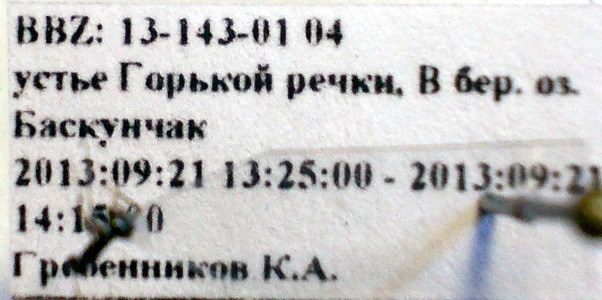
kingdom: Animalia
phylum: Arthropoda
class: Insecta
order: Hymenoptera
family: Formicidae
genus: Proformica
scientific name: Proformica epinotalis
